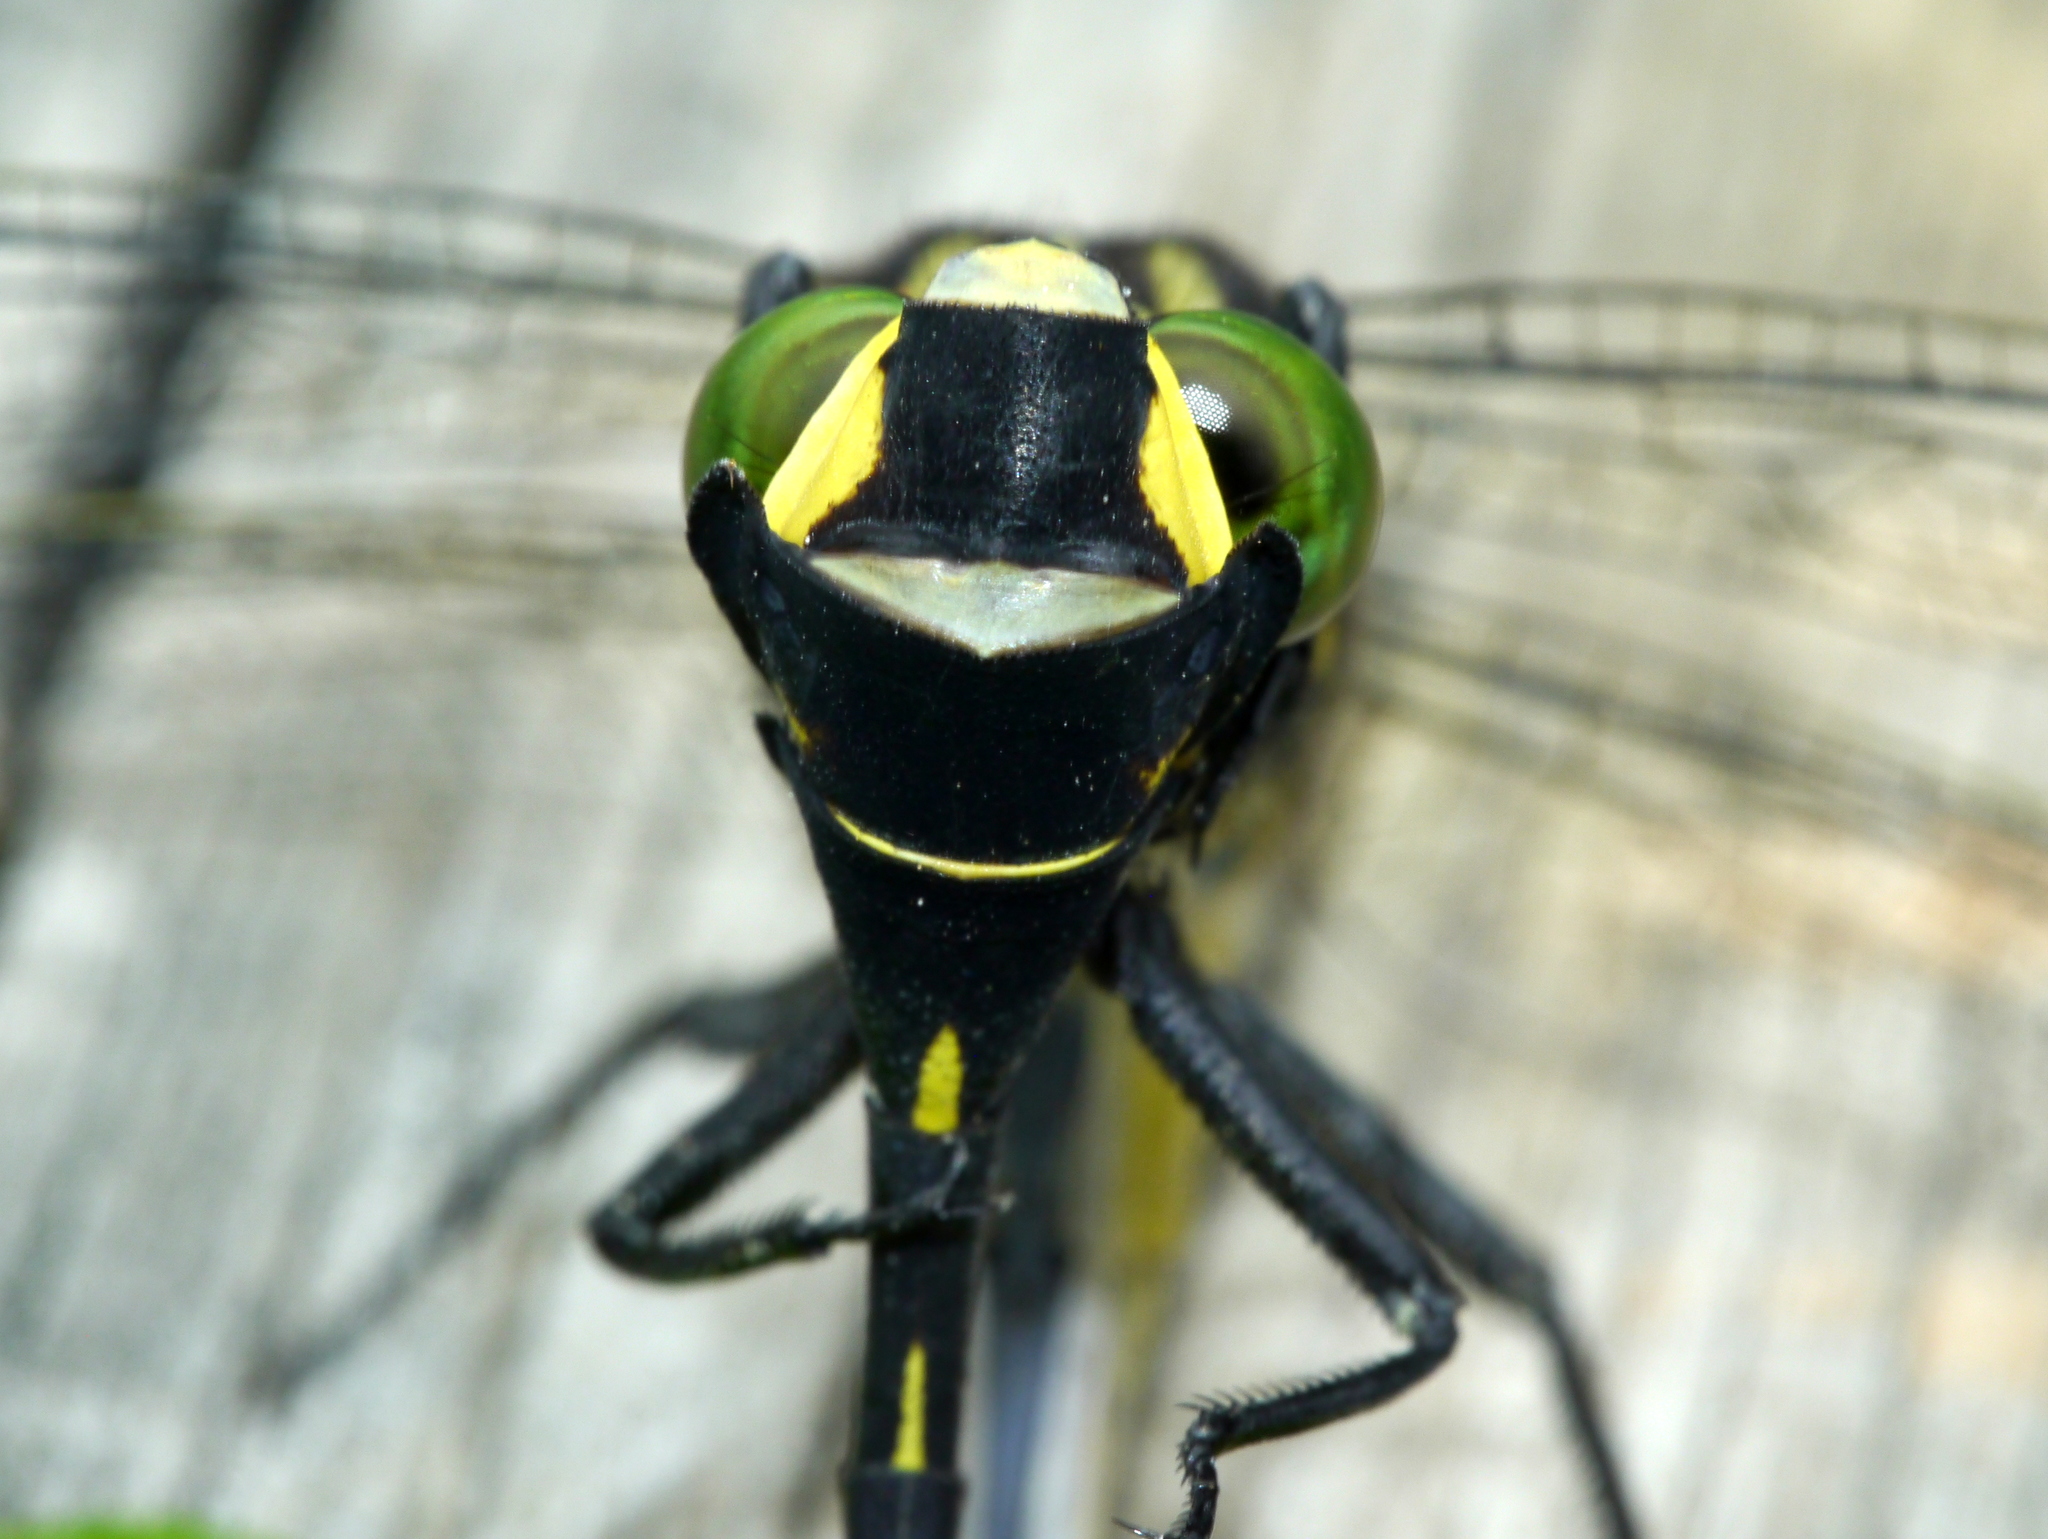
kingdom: Animalia
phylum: Arthropoda
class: Insecta
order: Odonata
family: Gomphidae
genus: Gomphurus
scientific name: Gomphurus vastus
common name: Cobra clubtail
